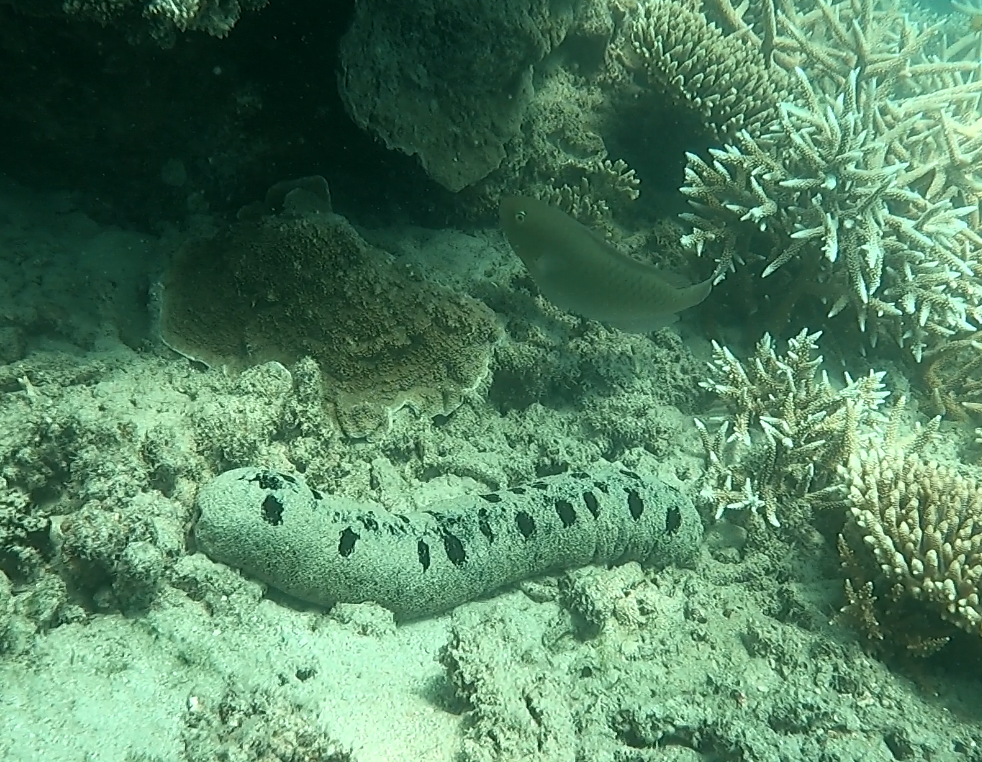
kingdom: Animalia
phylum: Echinodermata
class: Holothuroidea
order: Holothuriida
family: Holothuriidae
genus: Holothuria
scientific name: Holothuria atra
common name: Lollyfish
